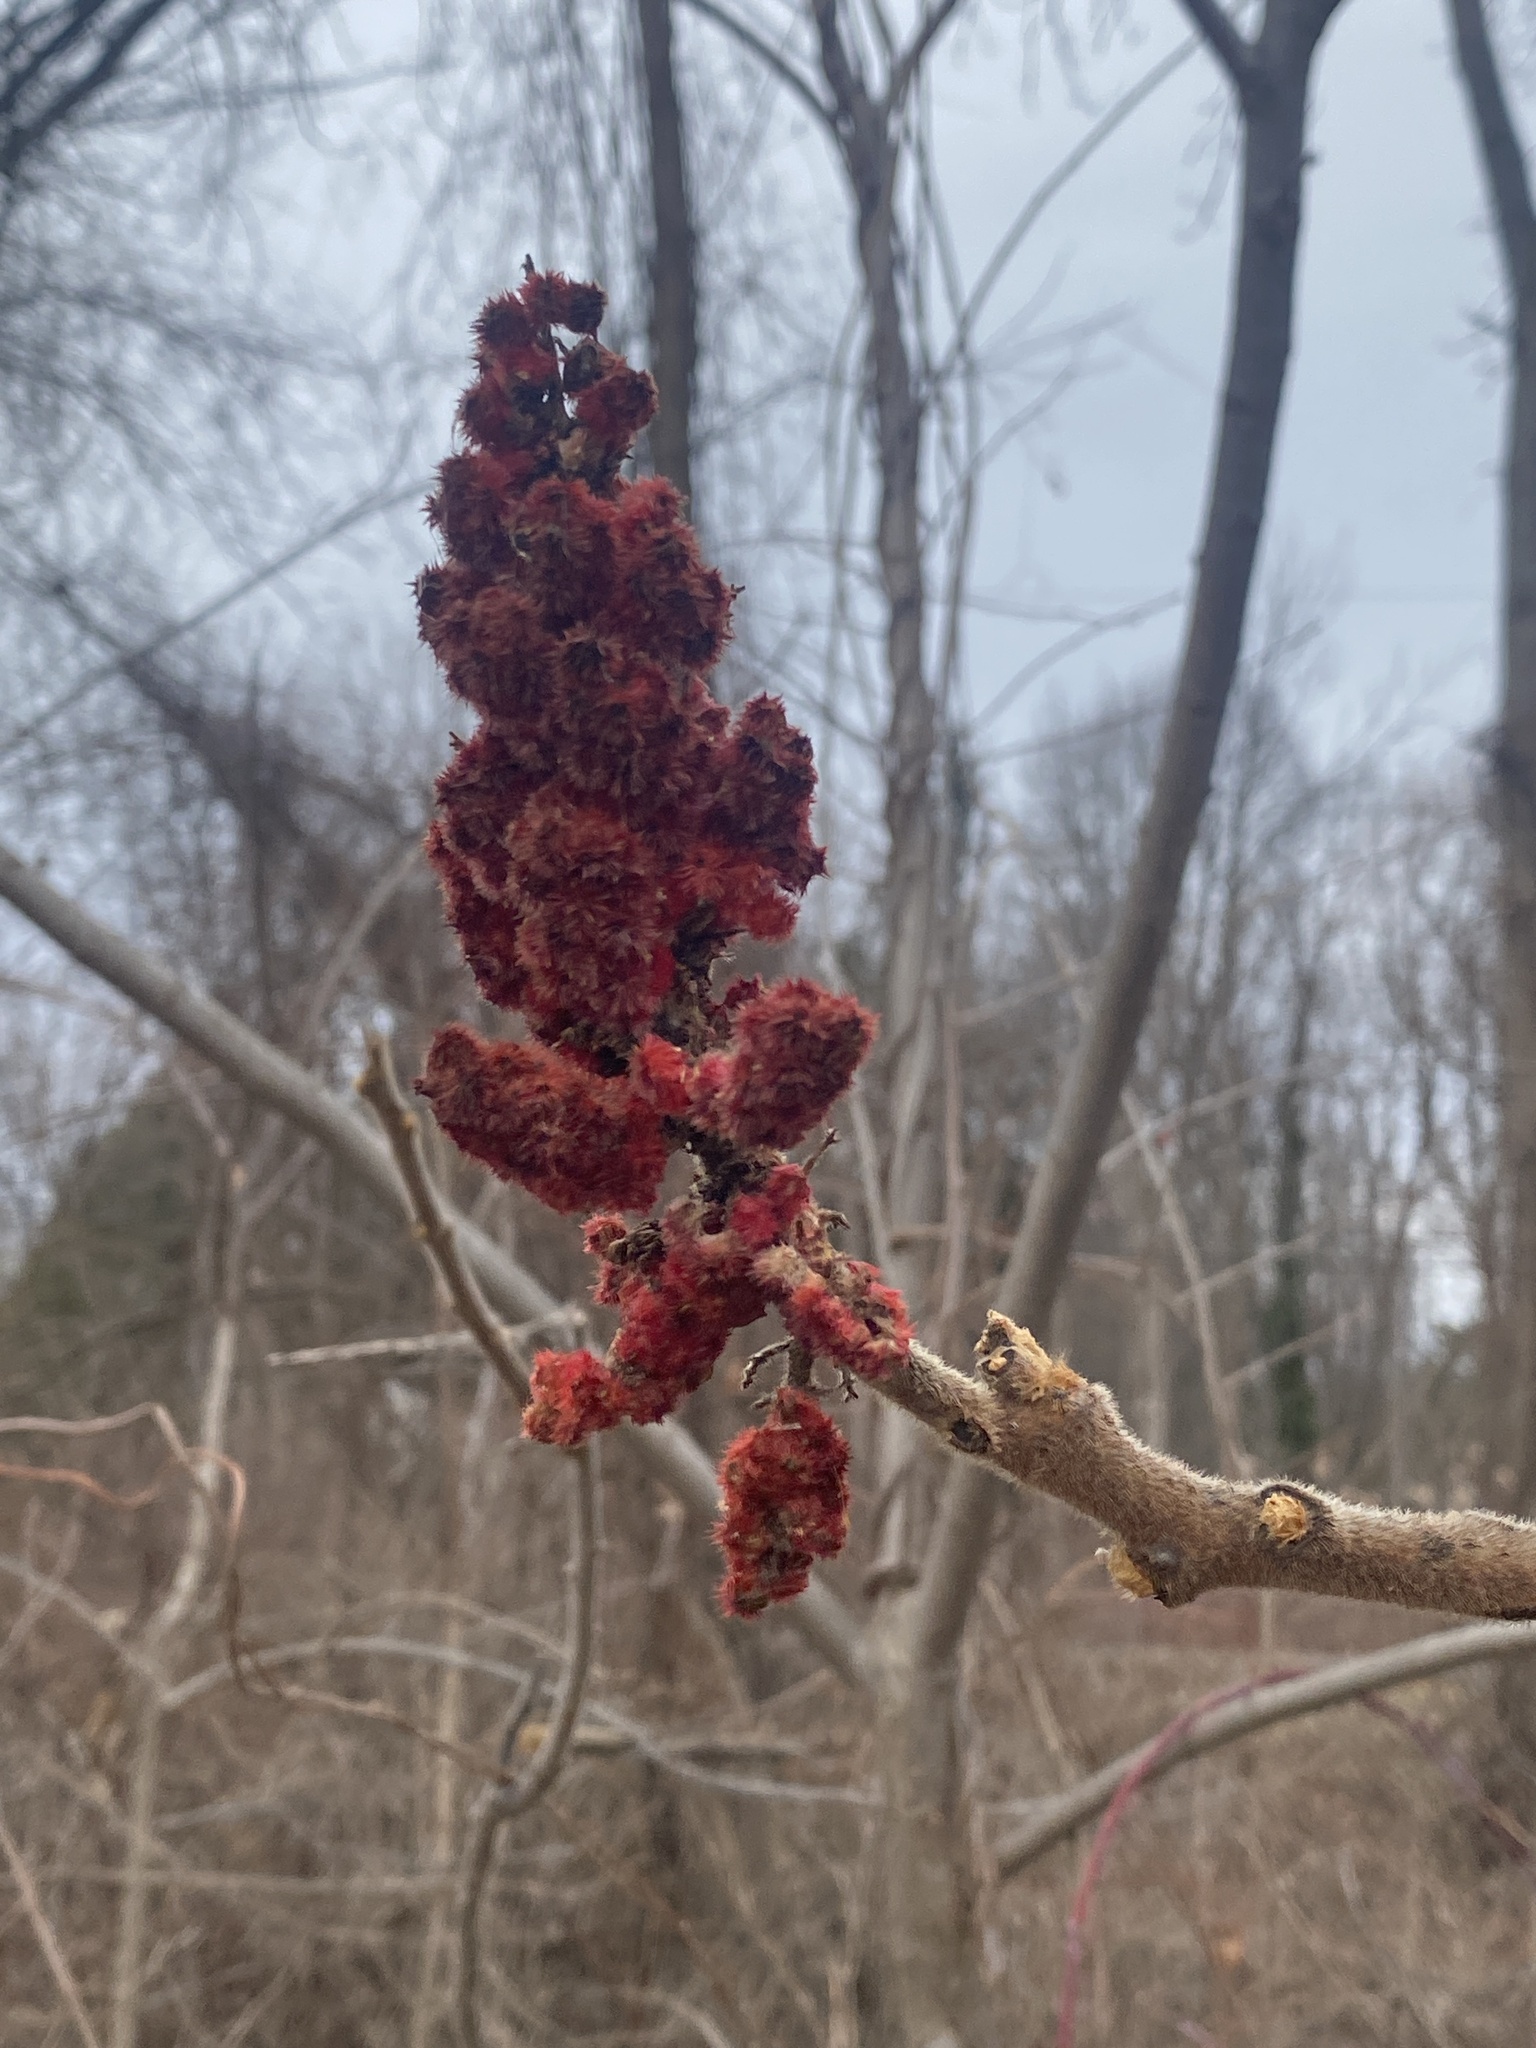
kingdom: Plantae
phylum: Tracheophyta
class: Magnoliopsida
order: Sapindales
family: Anacardiaceae
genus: Rhus
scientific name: Rhus typhina
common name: Staghorn sumac
